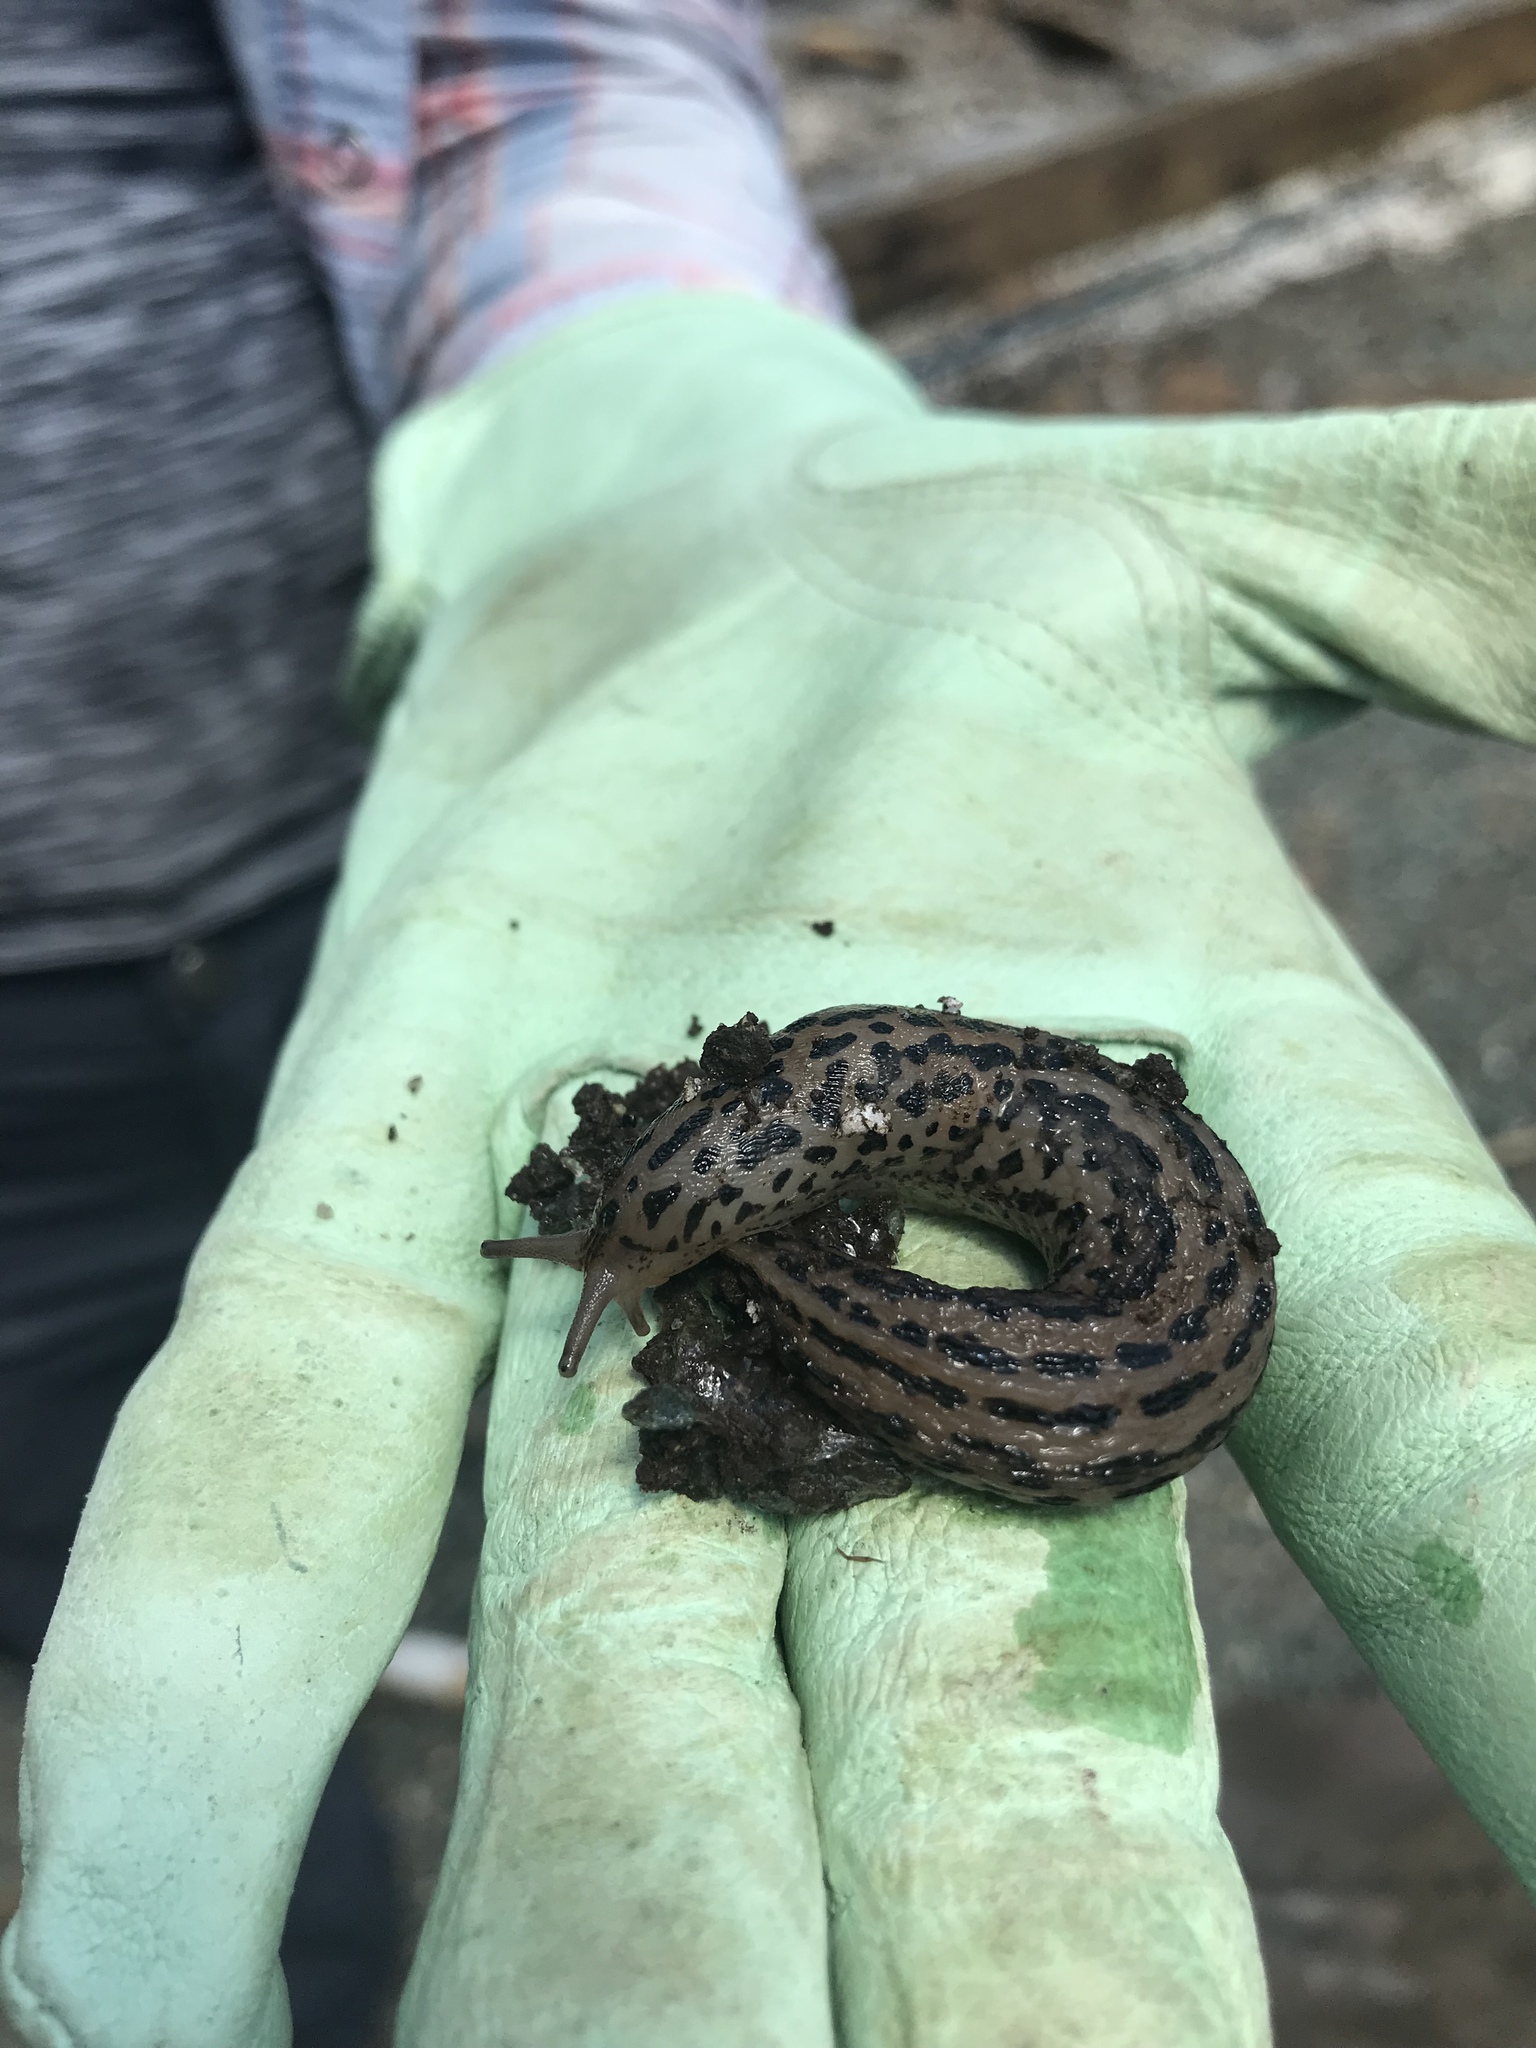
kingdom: Animalia
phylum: Mollusca
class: Gastropoda
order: Stylommatophora
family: Limacidae
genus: Limax
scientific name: Limax maximus
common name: Great grey slug
